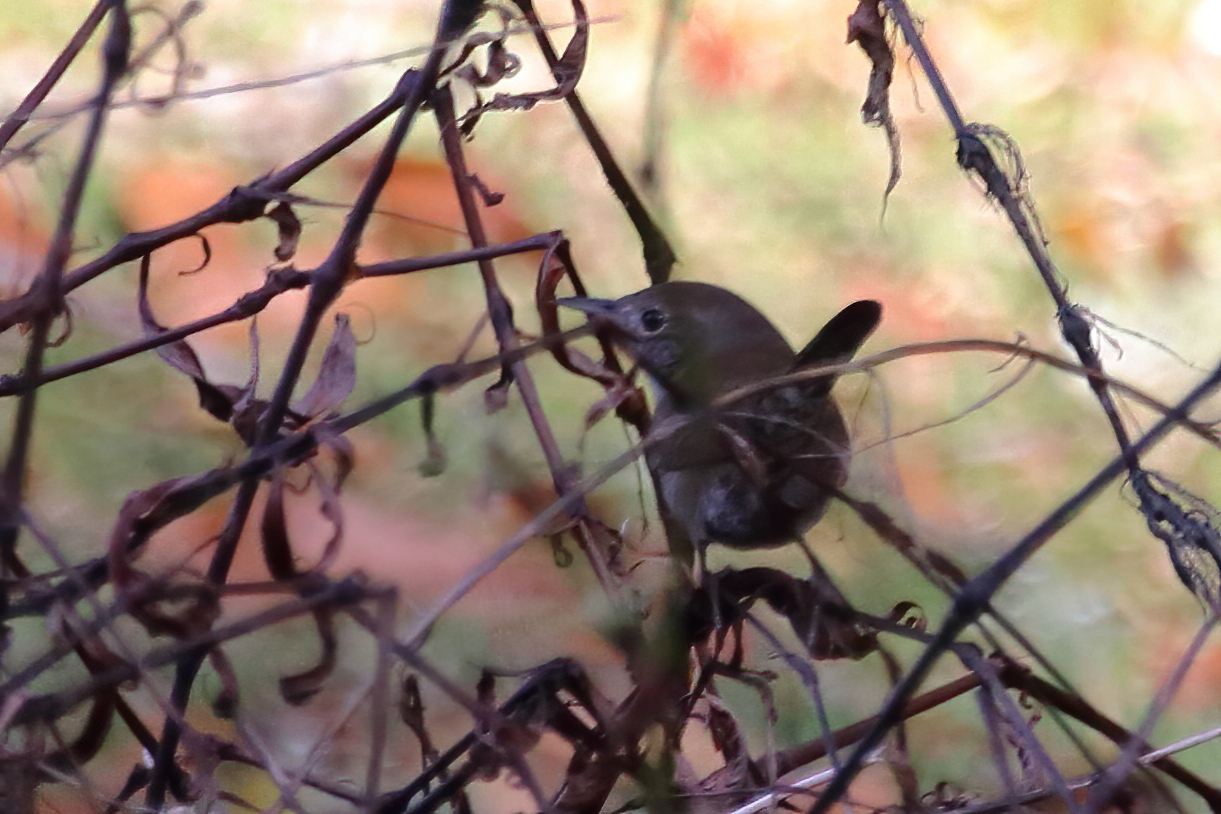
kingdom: Animalia
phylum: Chordata
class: Aves
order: Passeriformes
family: Troglodytidae
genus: Troglodytes
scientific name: Troglodytes aedon
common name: House wren
